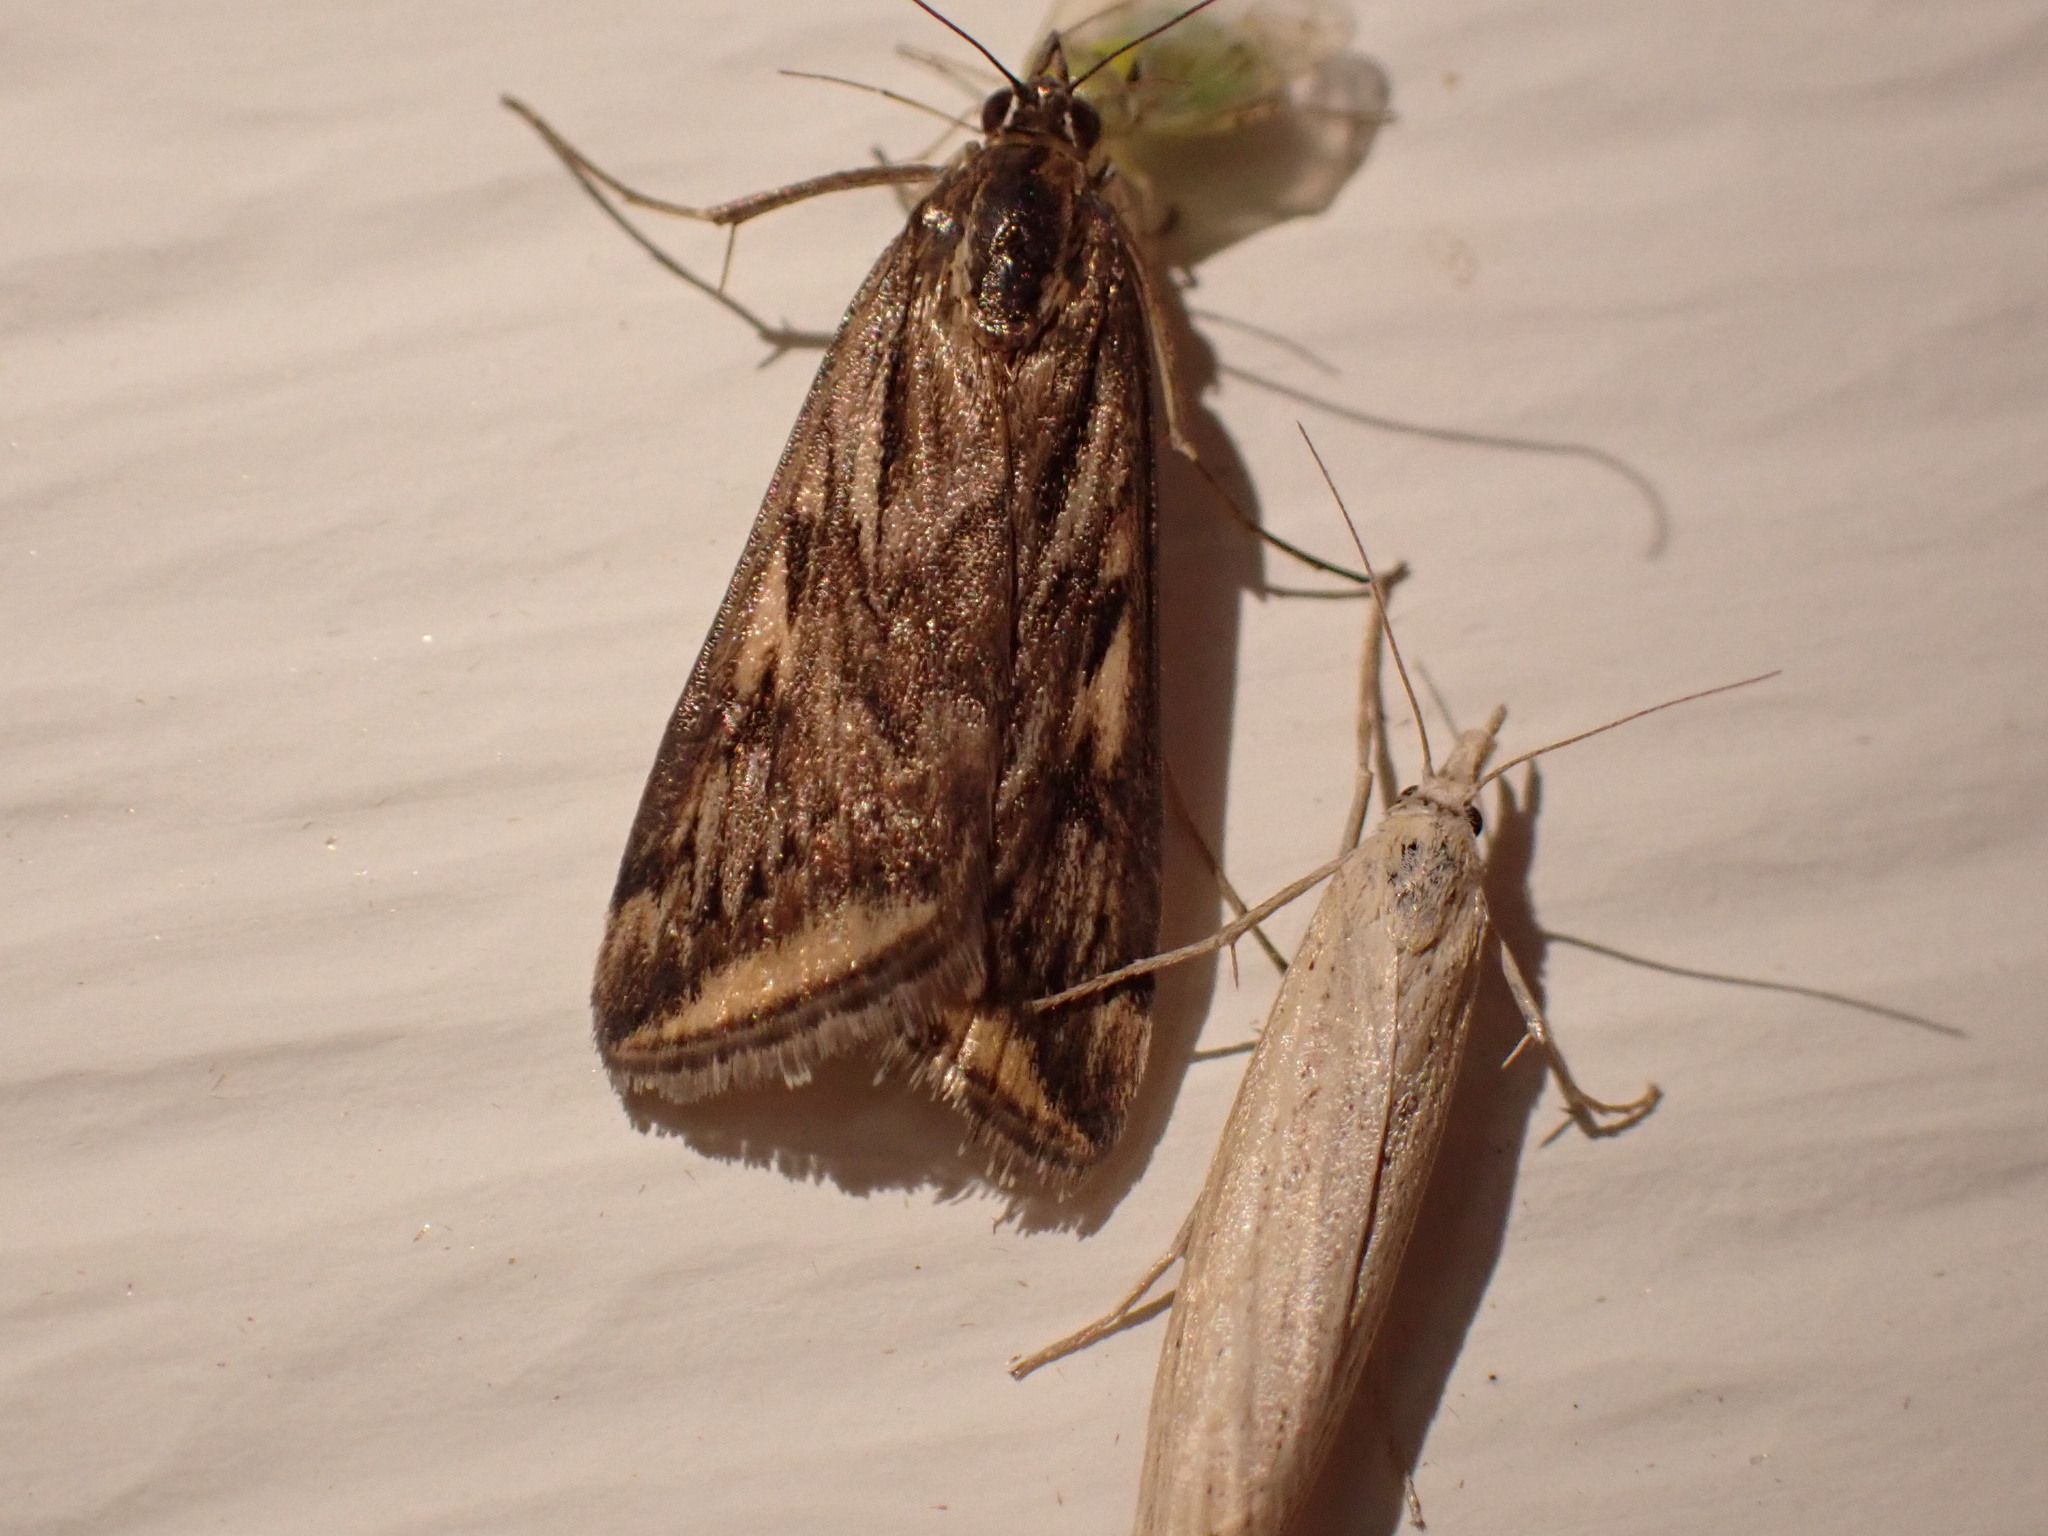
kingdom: Animalia
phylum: Arthropoda
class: Insecta
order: Lepidoptera
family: Crambidae
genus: Loxostege
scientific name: Loxostege cereralis
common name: Alfalfa webworm moth
